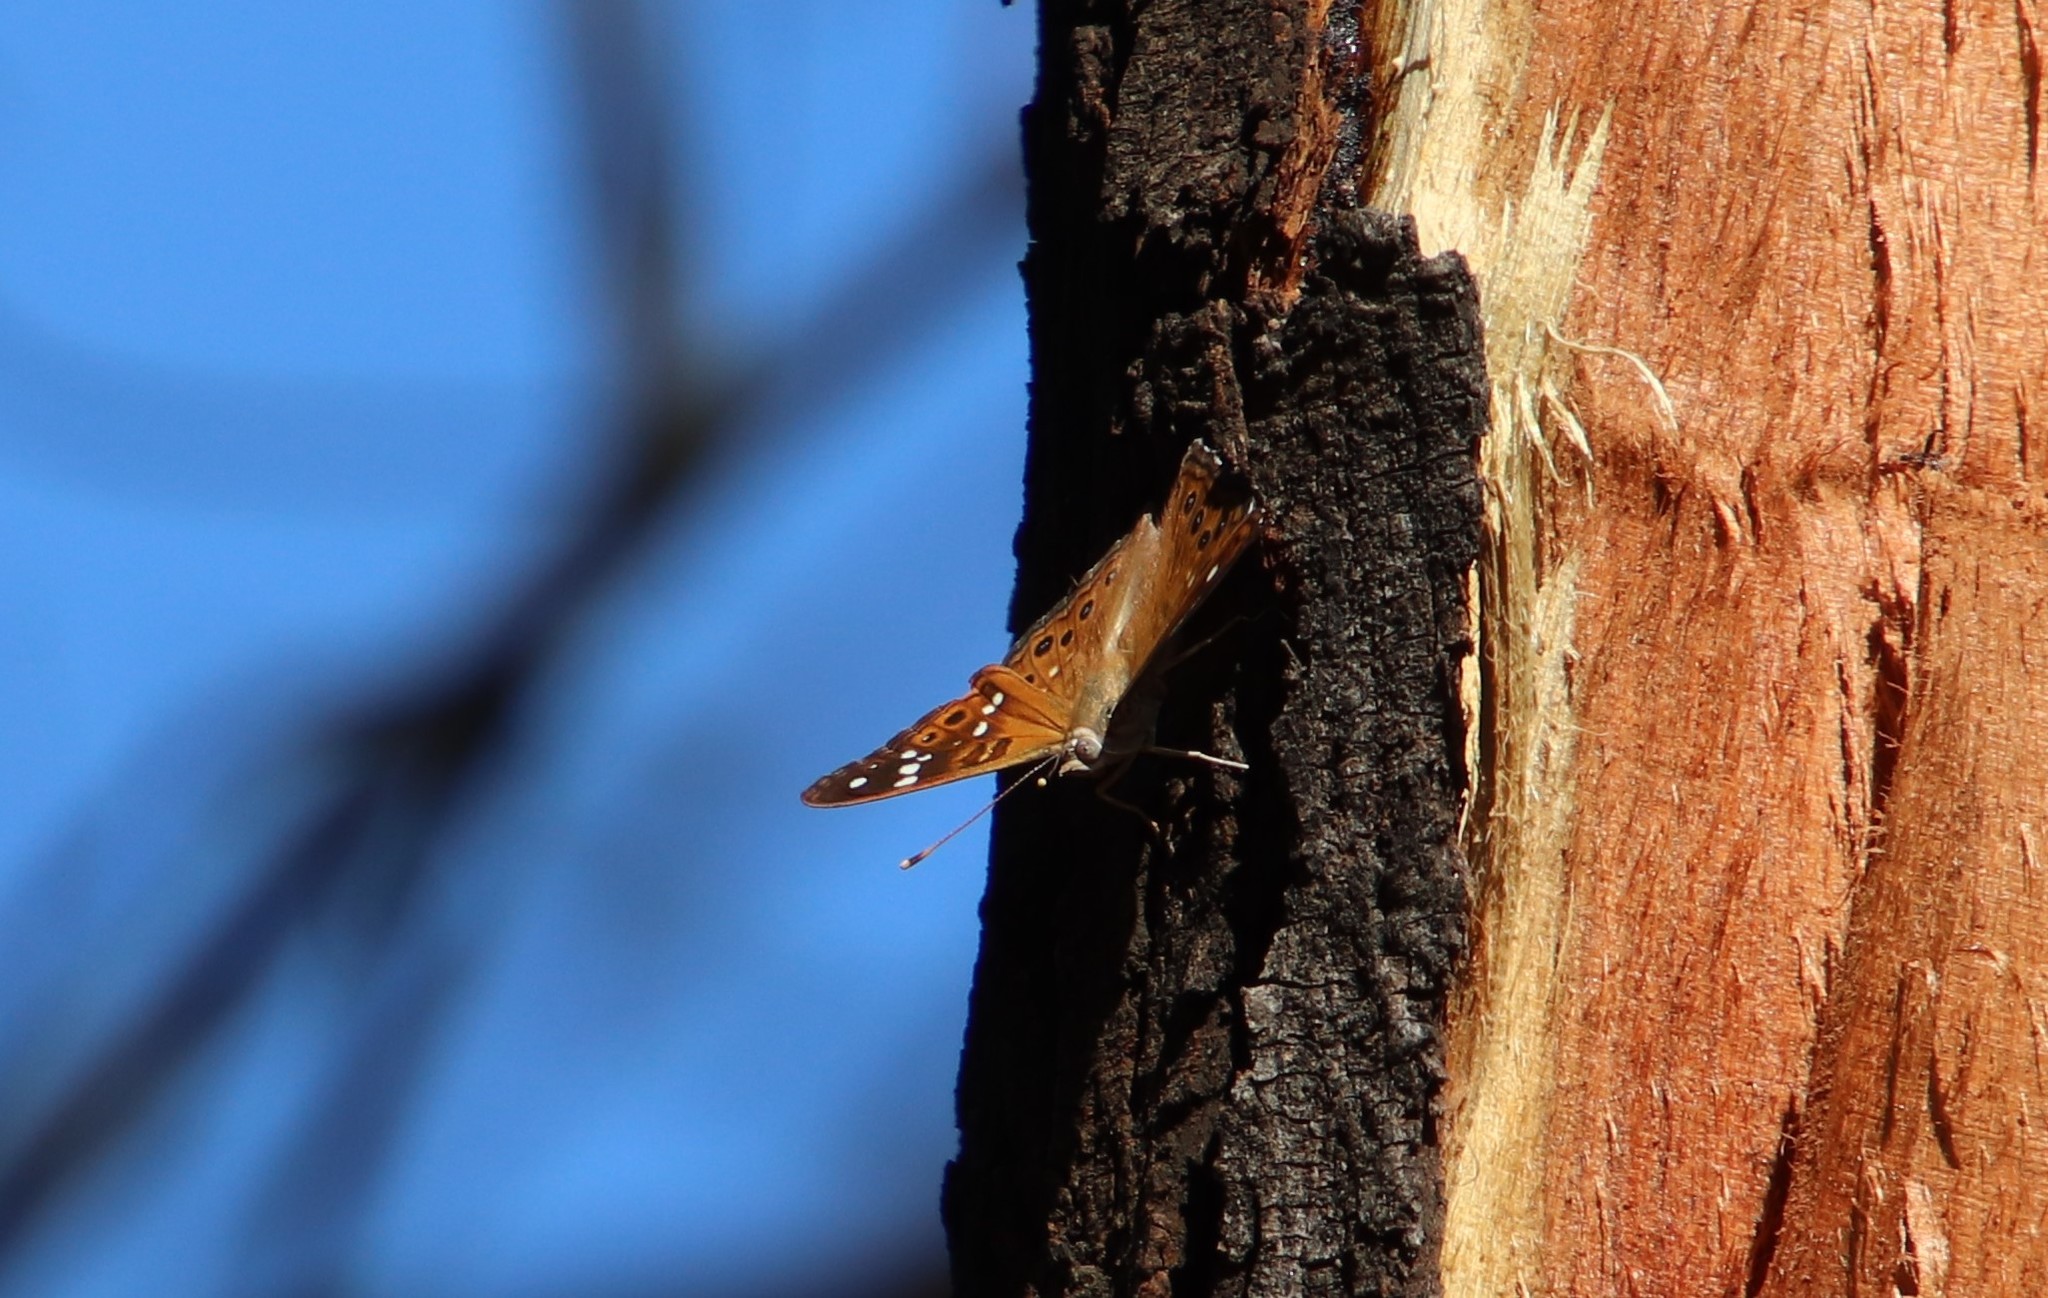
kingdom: Animalia
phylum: Arthropoda
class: Insecta
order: Lepidoptera
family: Nymphalidae
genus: Asterocampa
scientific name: Asterocampa leilia
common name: Empress leilia
